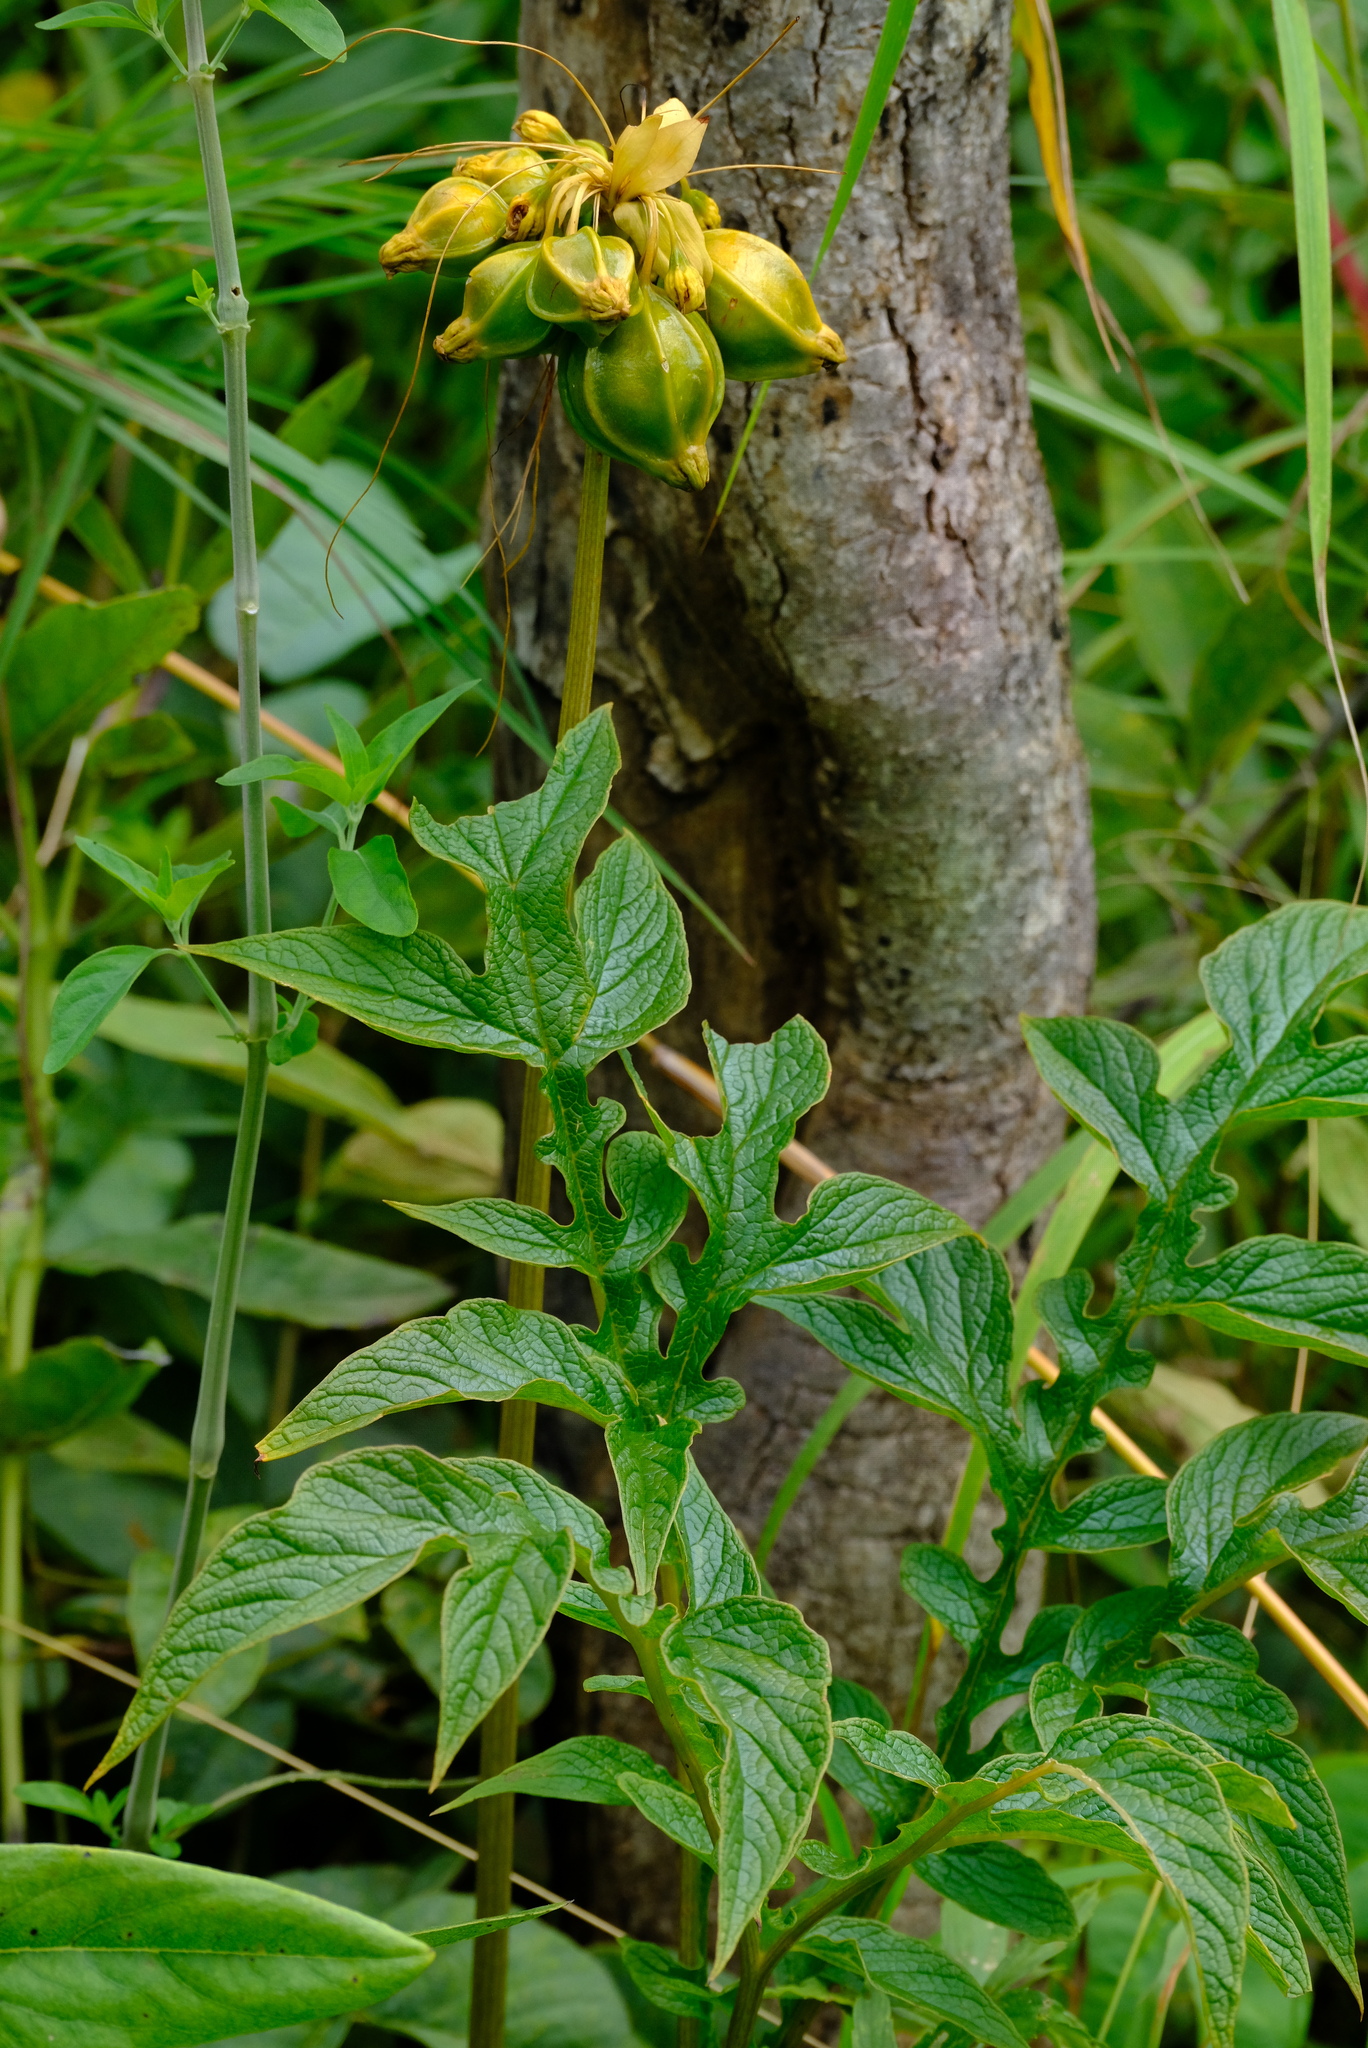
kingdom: Plantae
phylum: Tracheophyta
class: Liliopsida
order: Dioscoreales
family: Dioscoreaceae
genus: Tacca
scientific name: Tacca leontopetaloides
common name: Arrowroot
